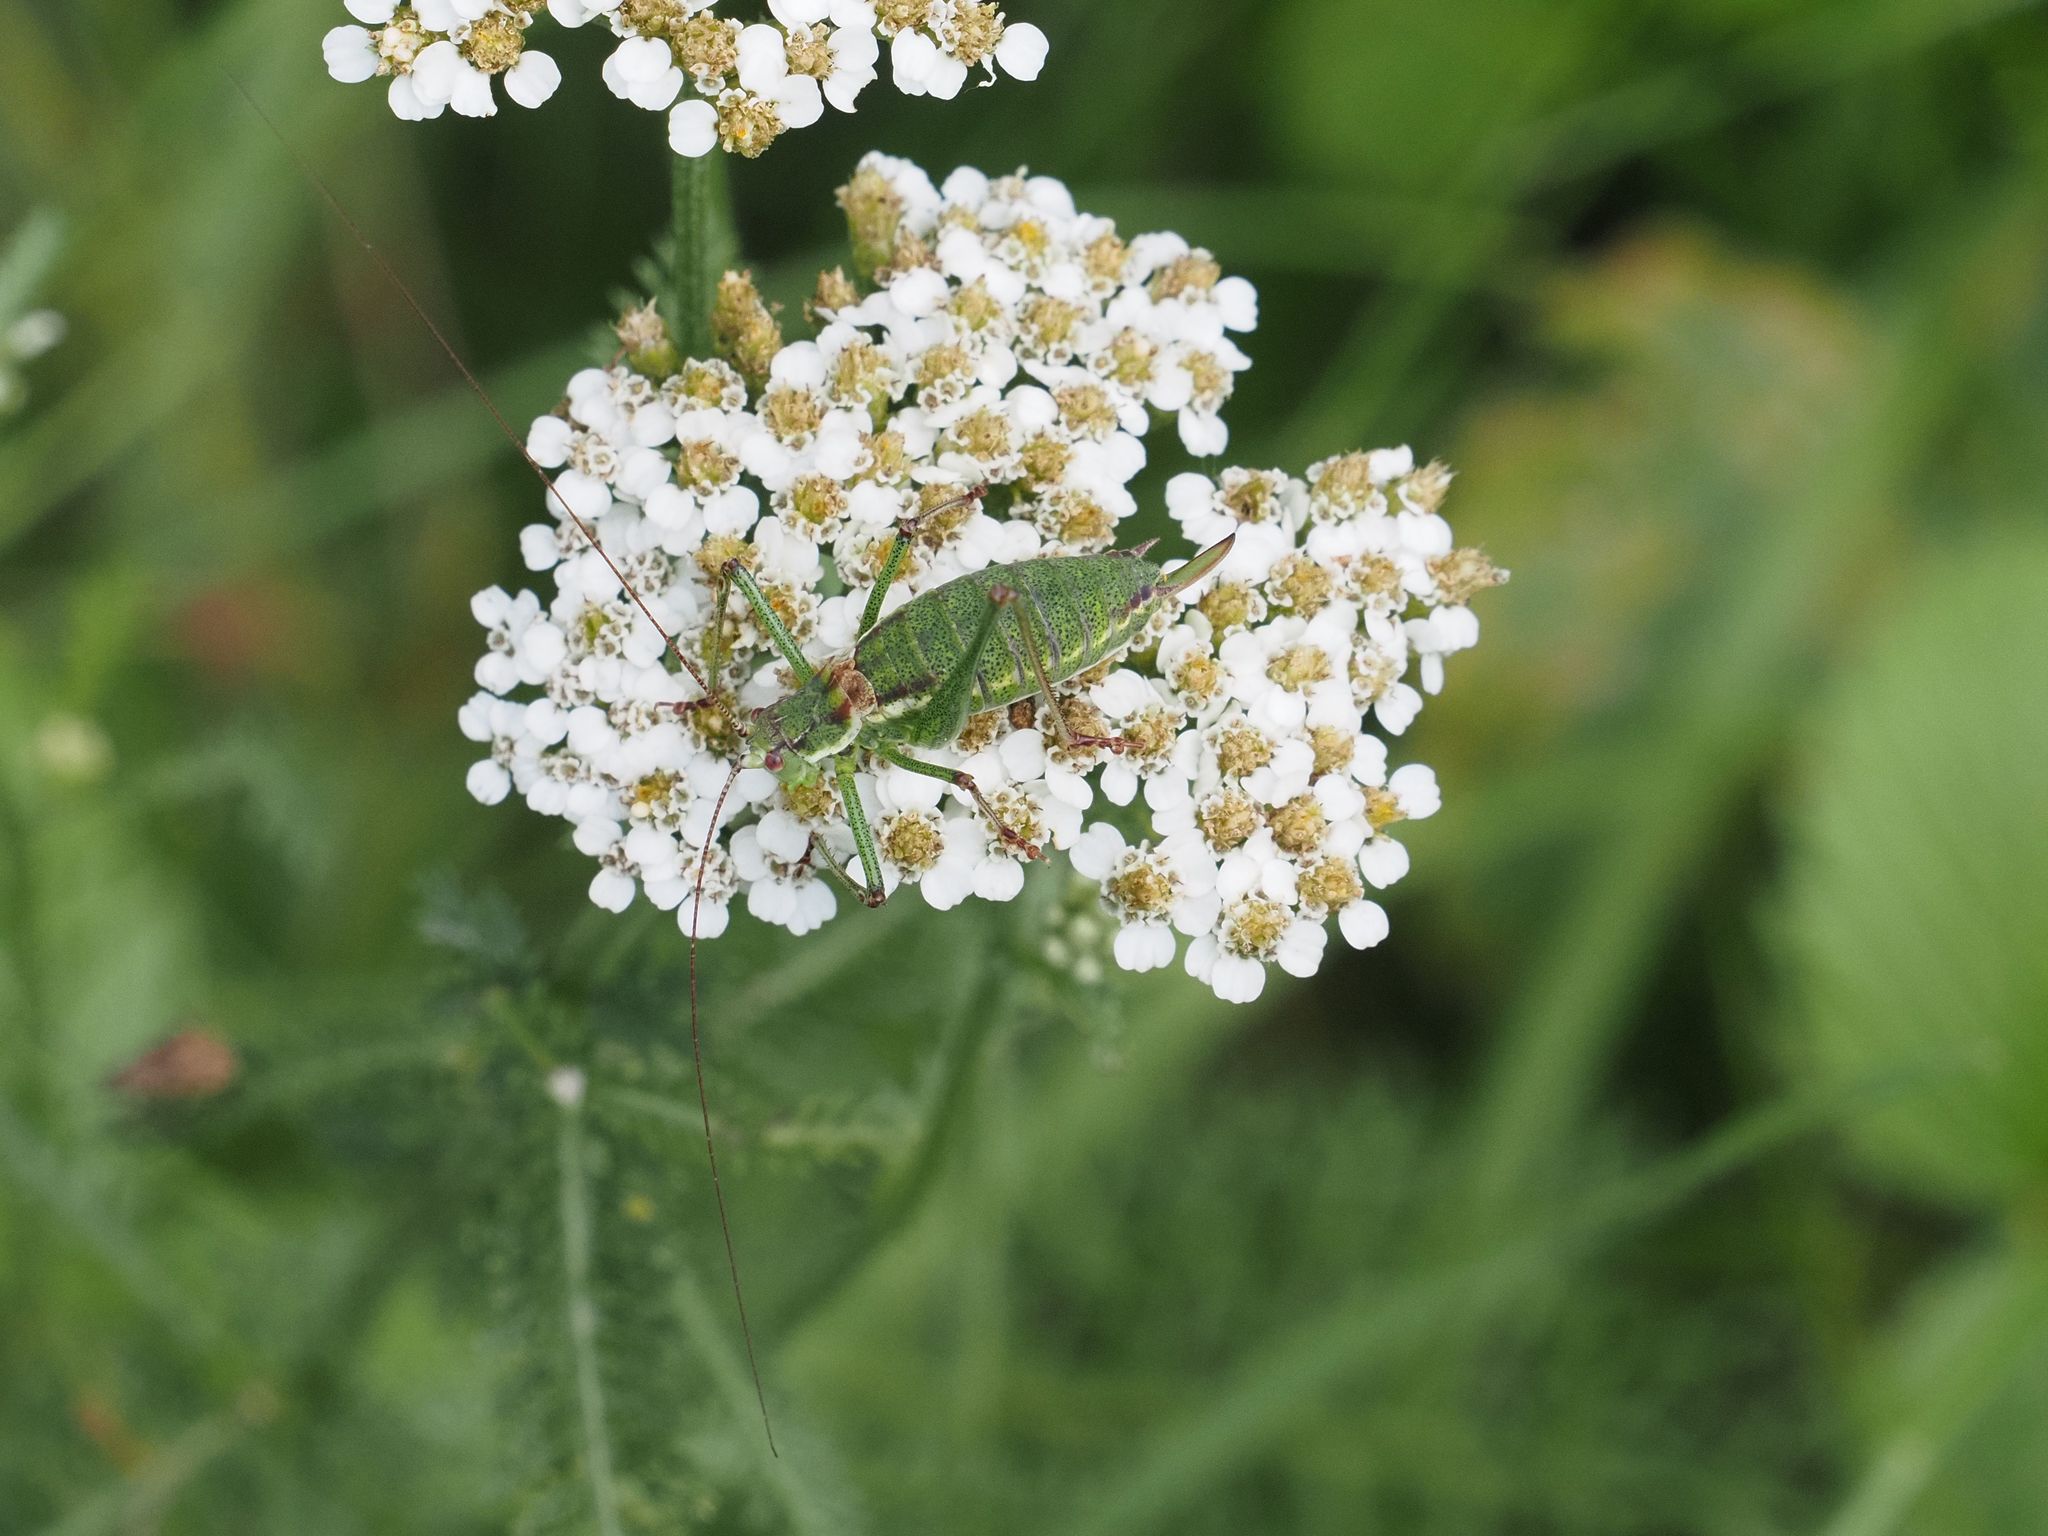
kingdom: Animalia
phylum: Arthropoda
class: Insecta
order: Orthoptera
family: Tettigoniidae
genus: Leptophyes
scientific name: Leptophyes albovittata
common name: Striped bush-cricket
